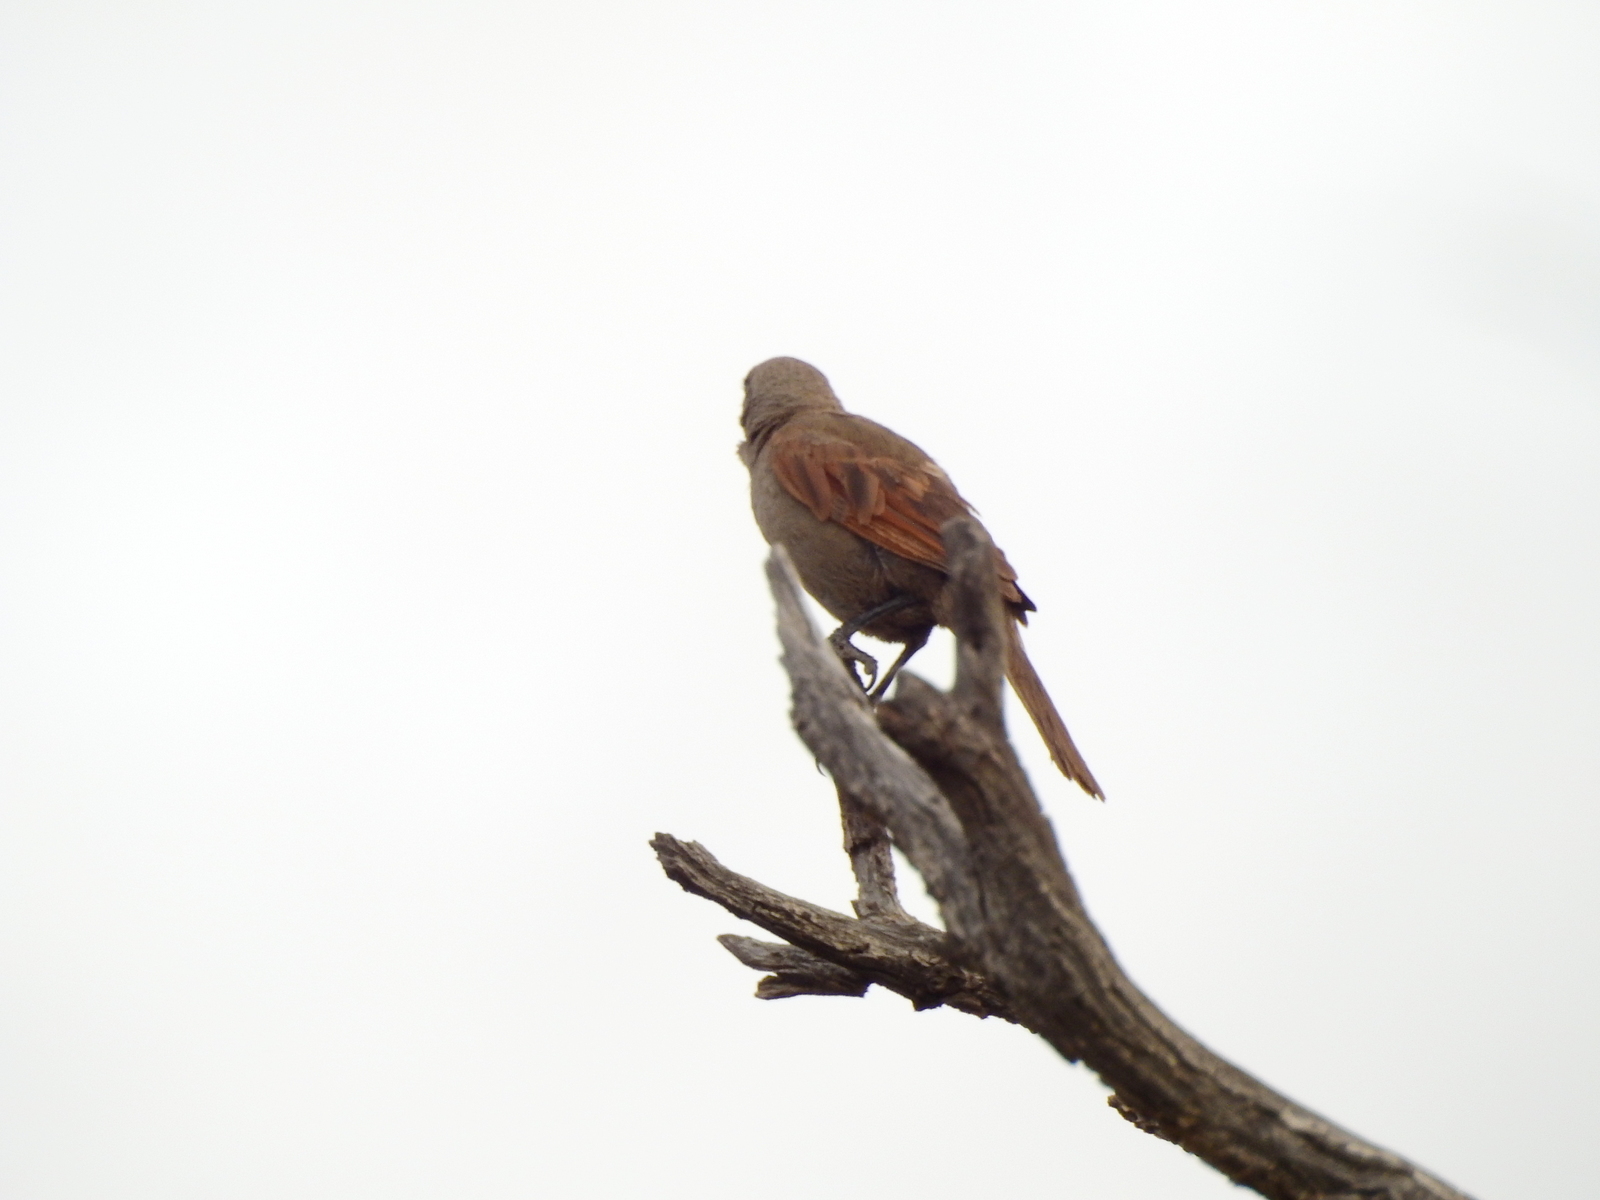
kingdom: Animalia
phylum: Chordata
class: Aves
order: Passeriformes
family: Icteridae
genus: Agelaioides
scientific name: Agelaioides badius
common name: Baywing
